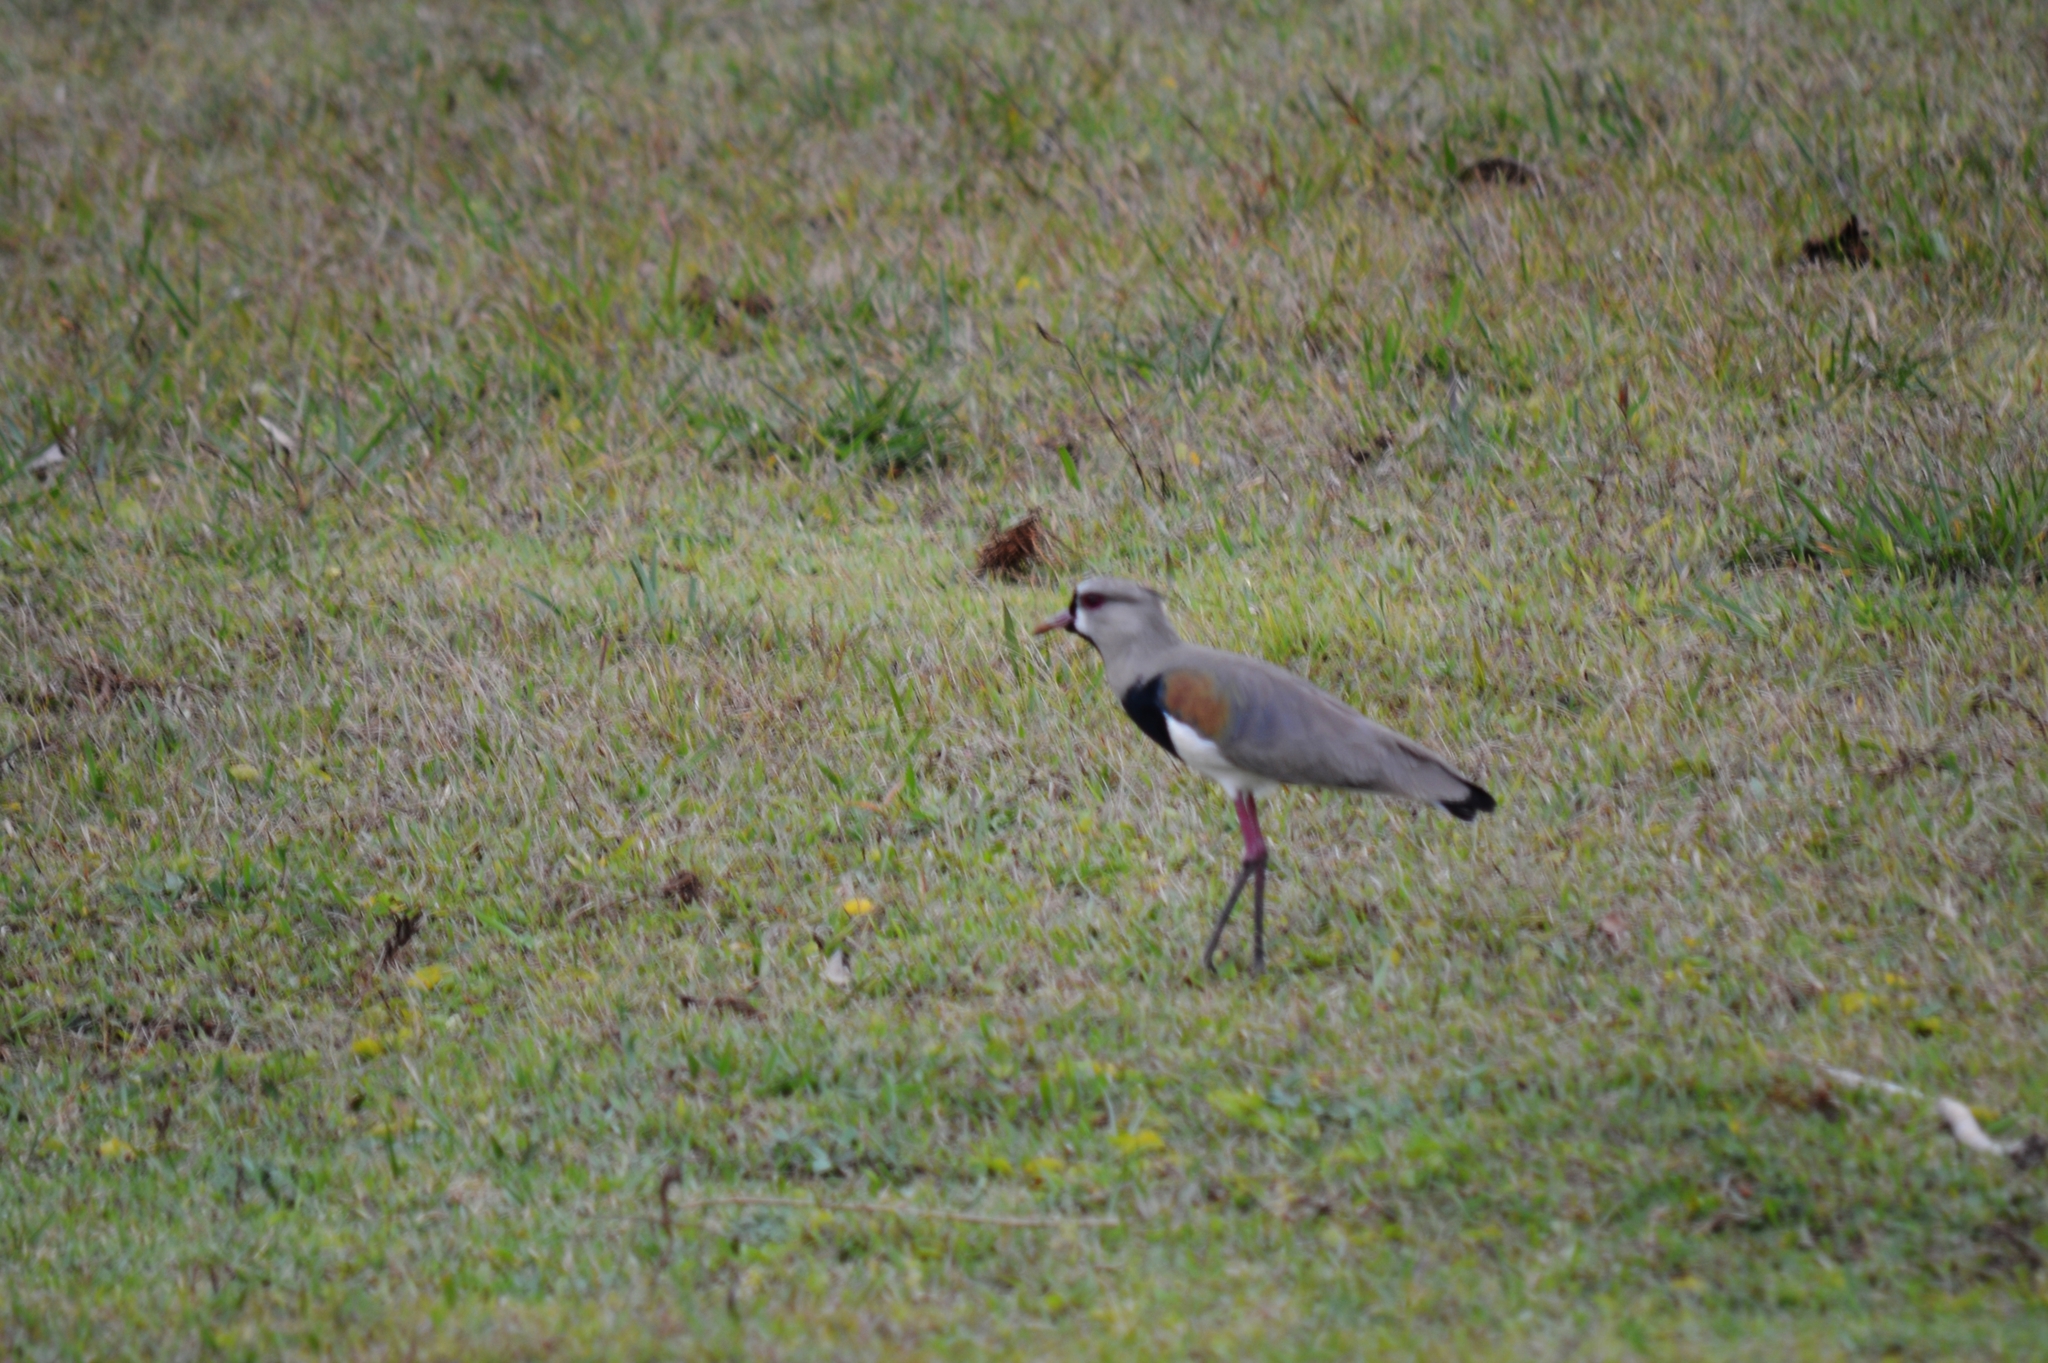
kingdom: Animalia
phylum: Chordata
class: Aves
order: Charadriiformes
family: Charadriidae
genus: Vanellus
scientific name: Vanellus chilensis
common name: Southern lapwing
